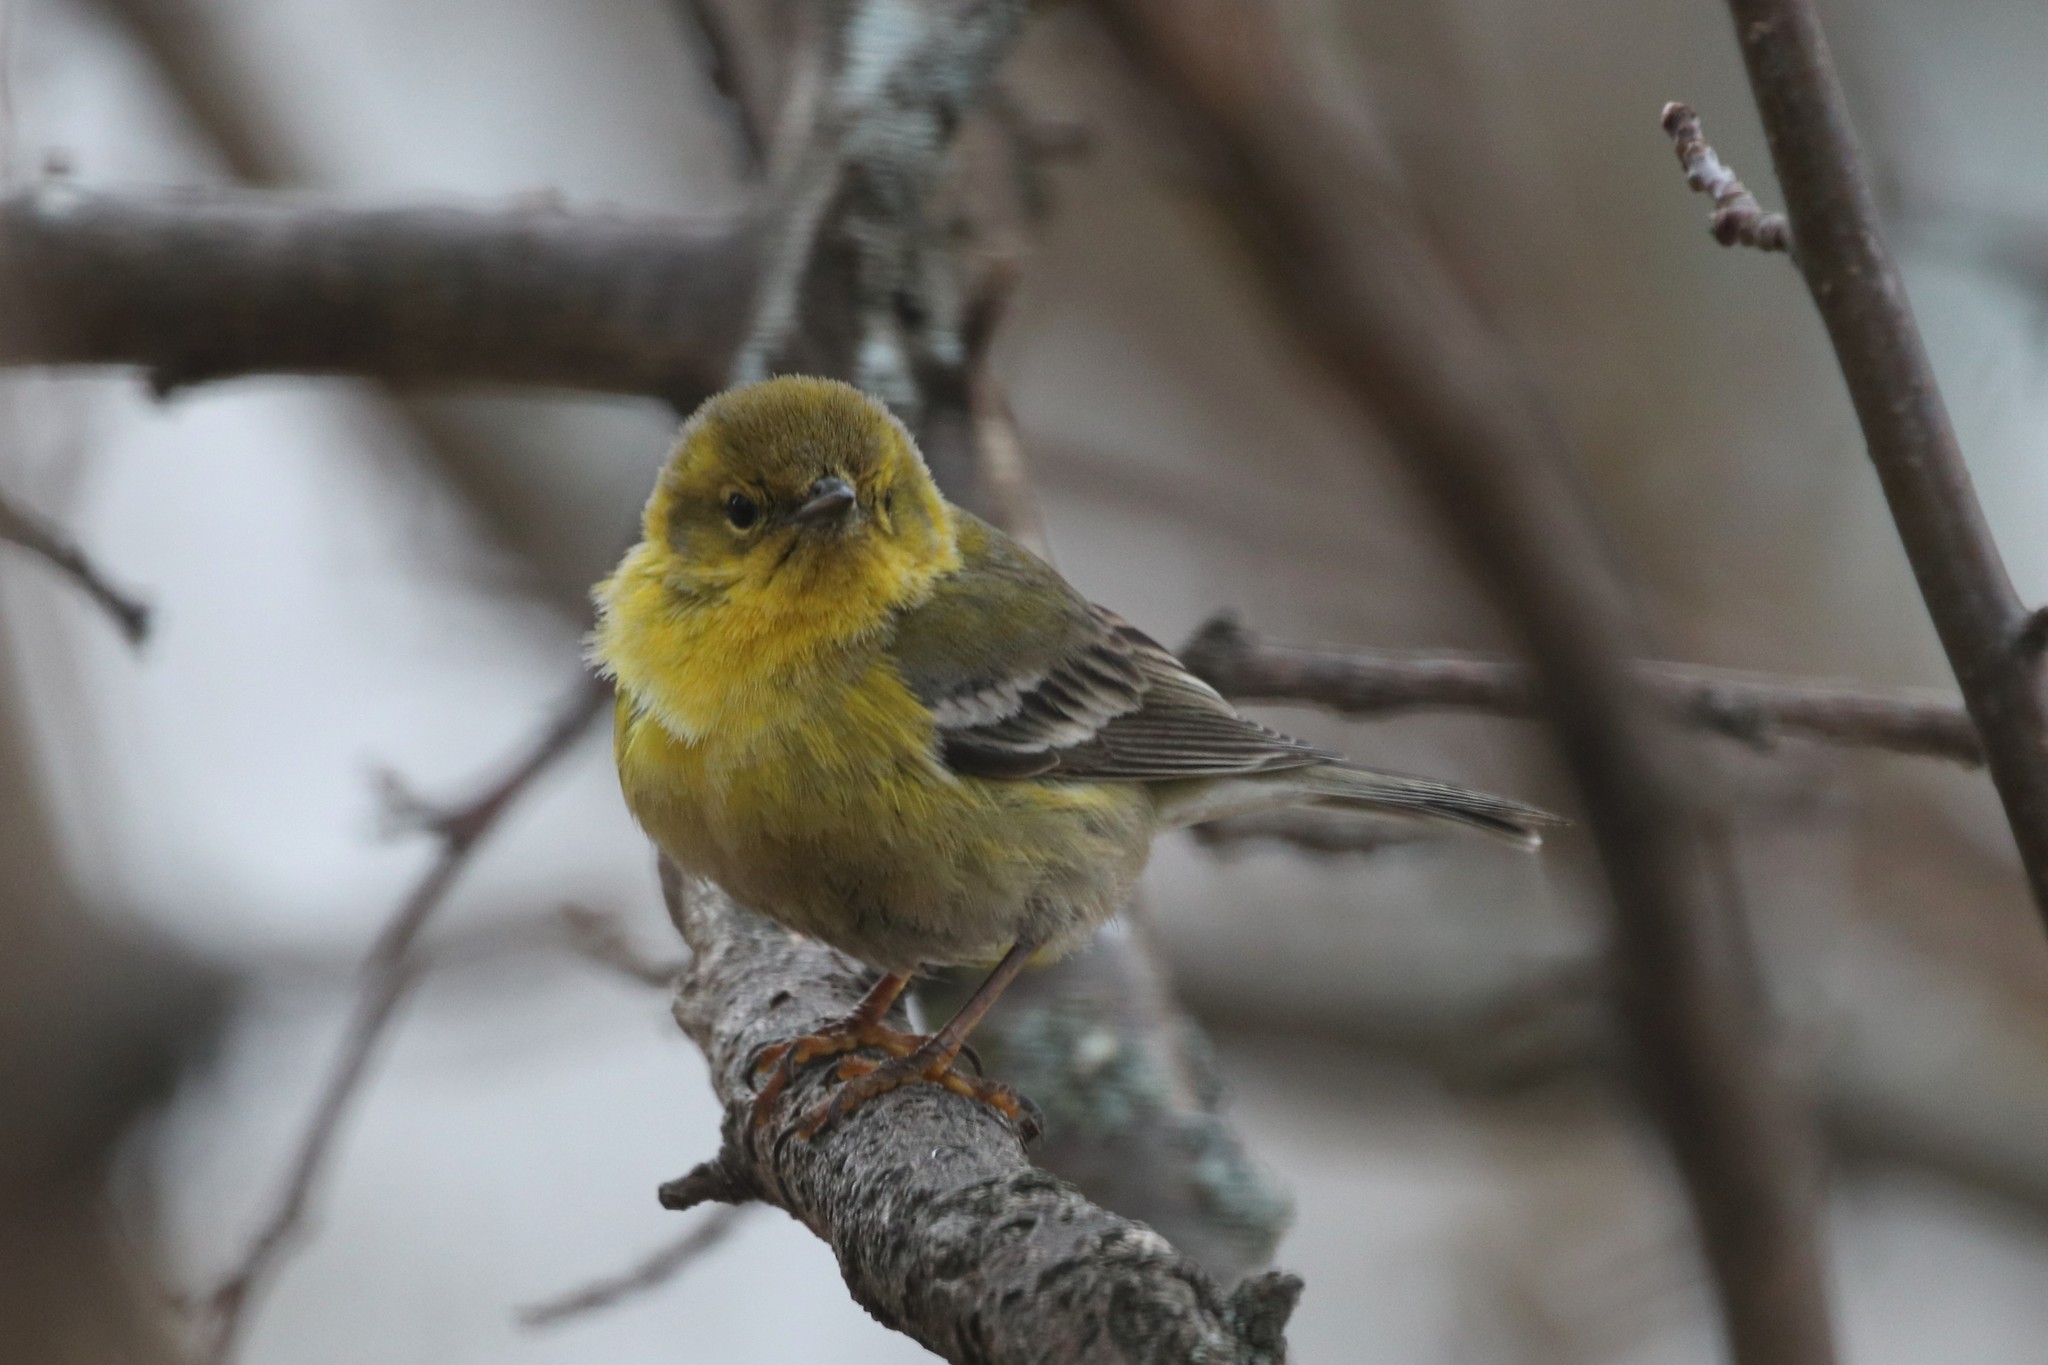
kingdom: Animalia
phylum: Chordata
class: Aves
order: Passeriformes
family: Parulidae
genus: Setophaga
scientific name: Setophaga pinus
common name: Pine warbler
